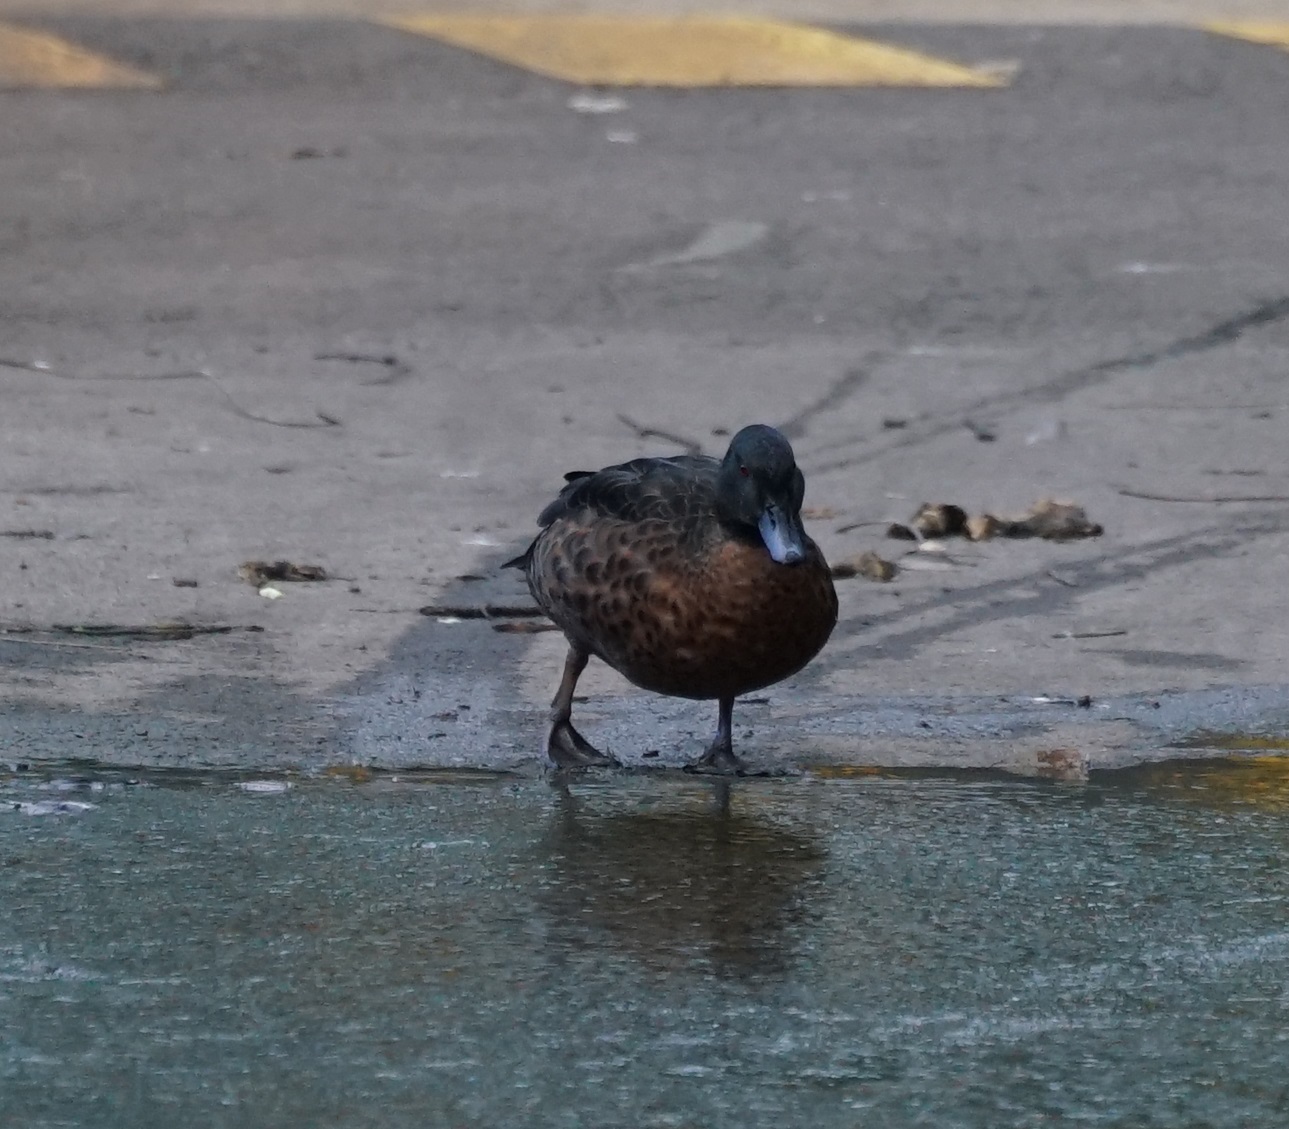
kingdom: Animalia
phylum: Chordata
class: Aves
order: Anseriformes
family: Anatidae
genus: Anas
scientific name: Anas castanea
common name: Chestnut teal
